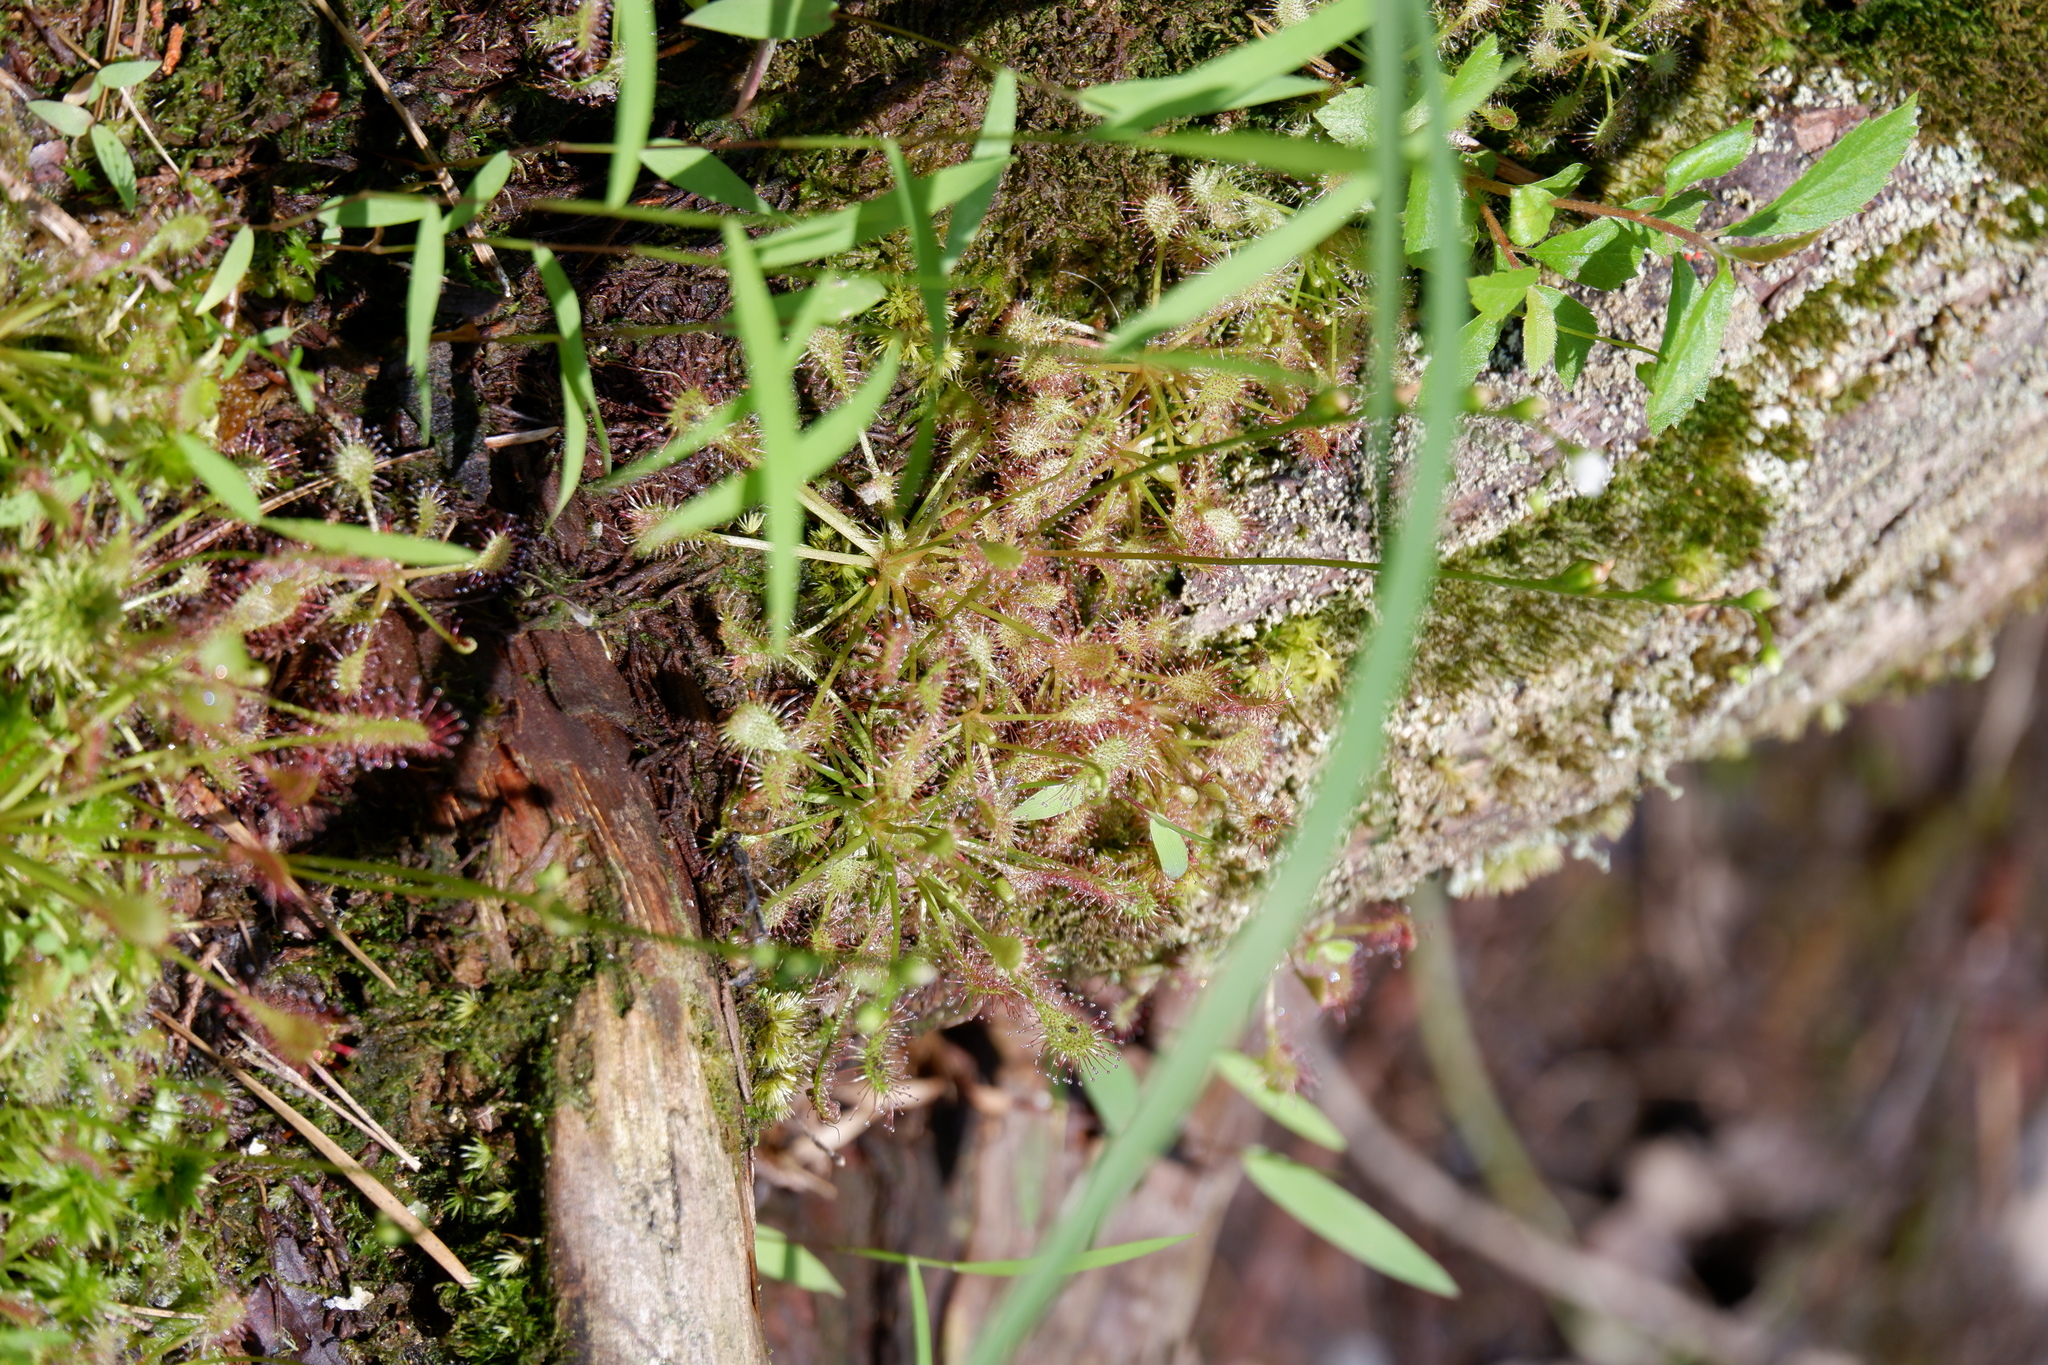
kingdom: Plantae
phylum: Tracheophyta
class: Magnoliopsida
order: Caryophyllales
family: Droseraceae
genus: Drosera
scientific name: Drosera intermedia
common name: Oblong-leaved sundew
